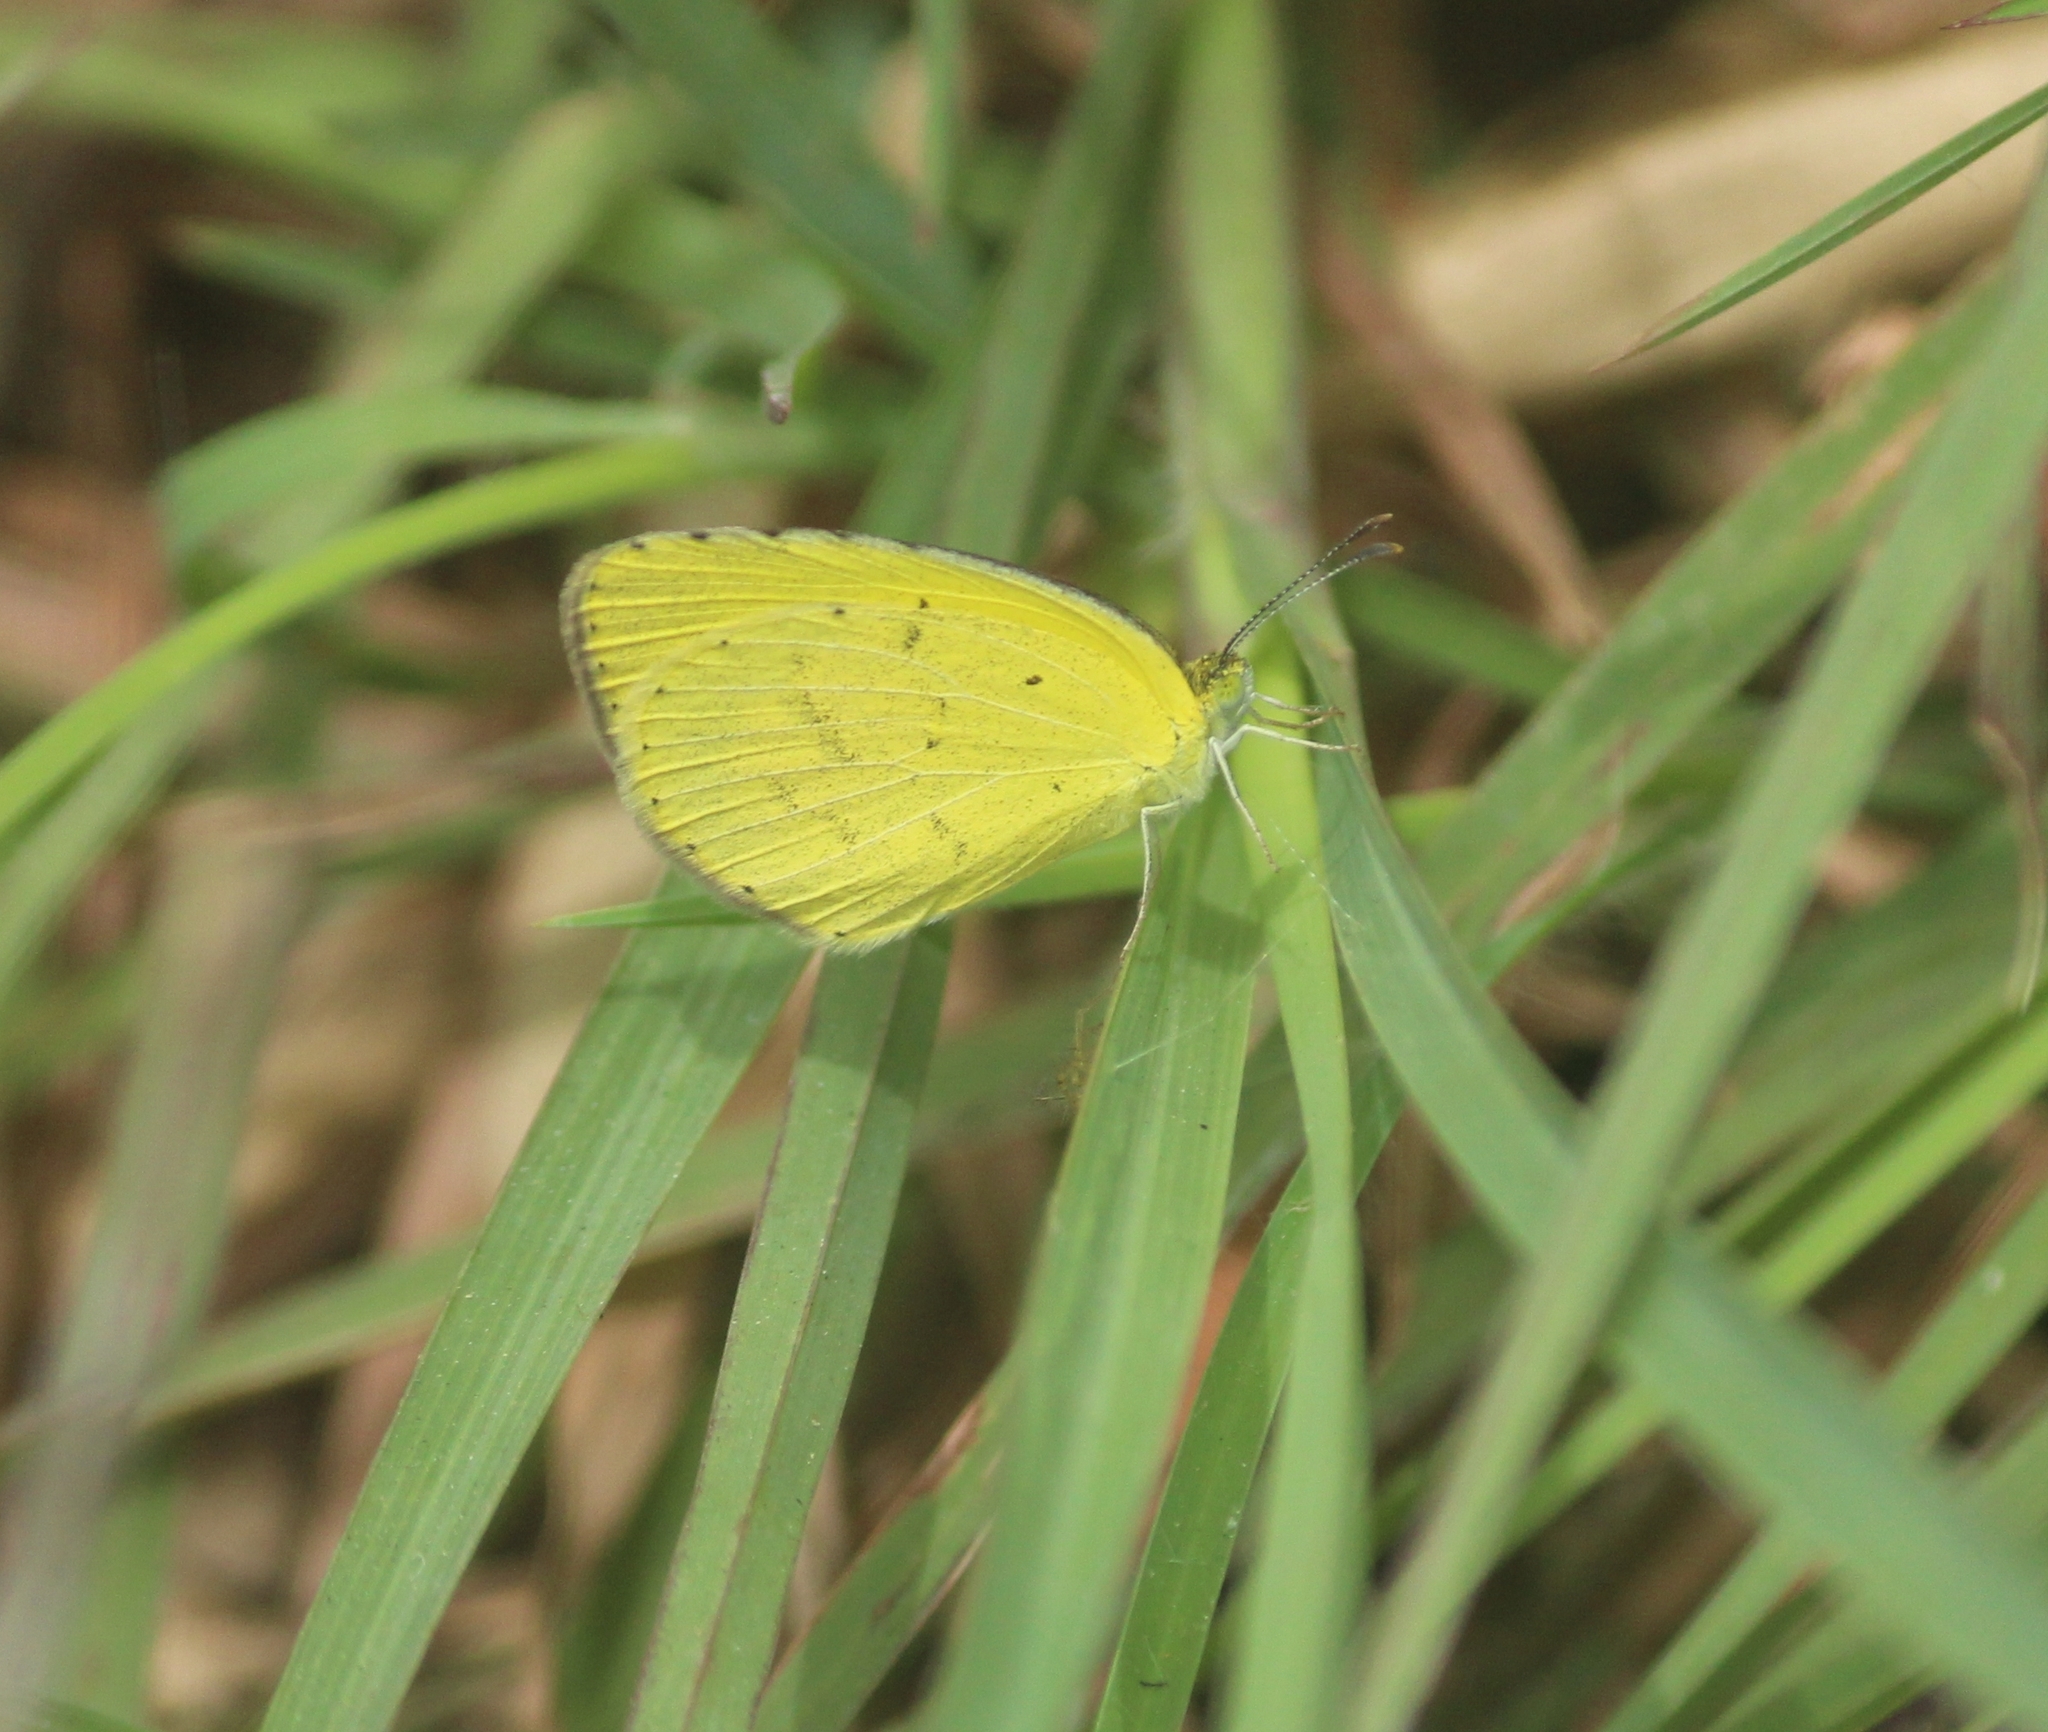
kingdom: Animalia
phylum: Arthropoda
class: Insecta
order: Lepidoptera
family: Pieridae
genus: Eurema
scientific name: Eurema brigitta
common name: Small grass yellow
